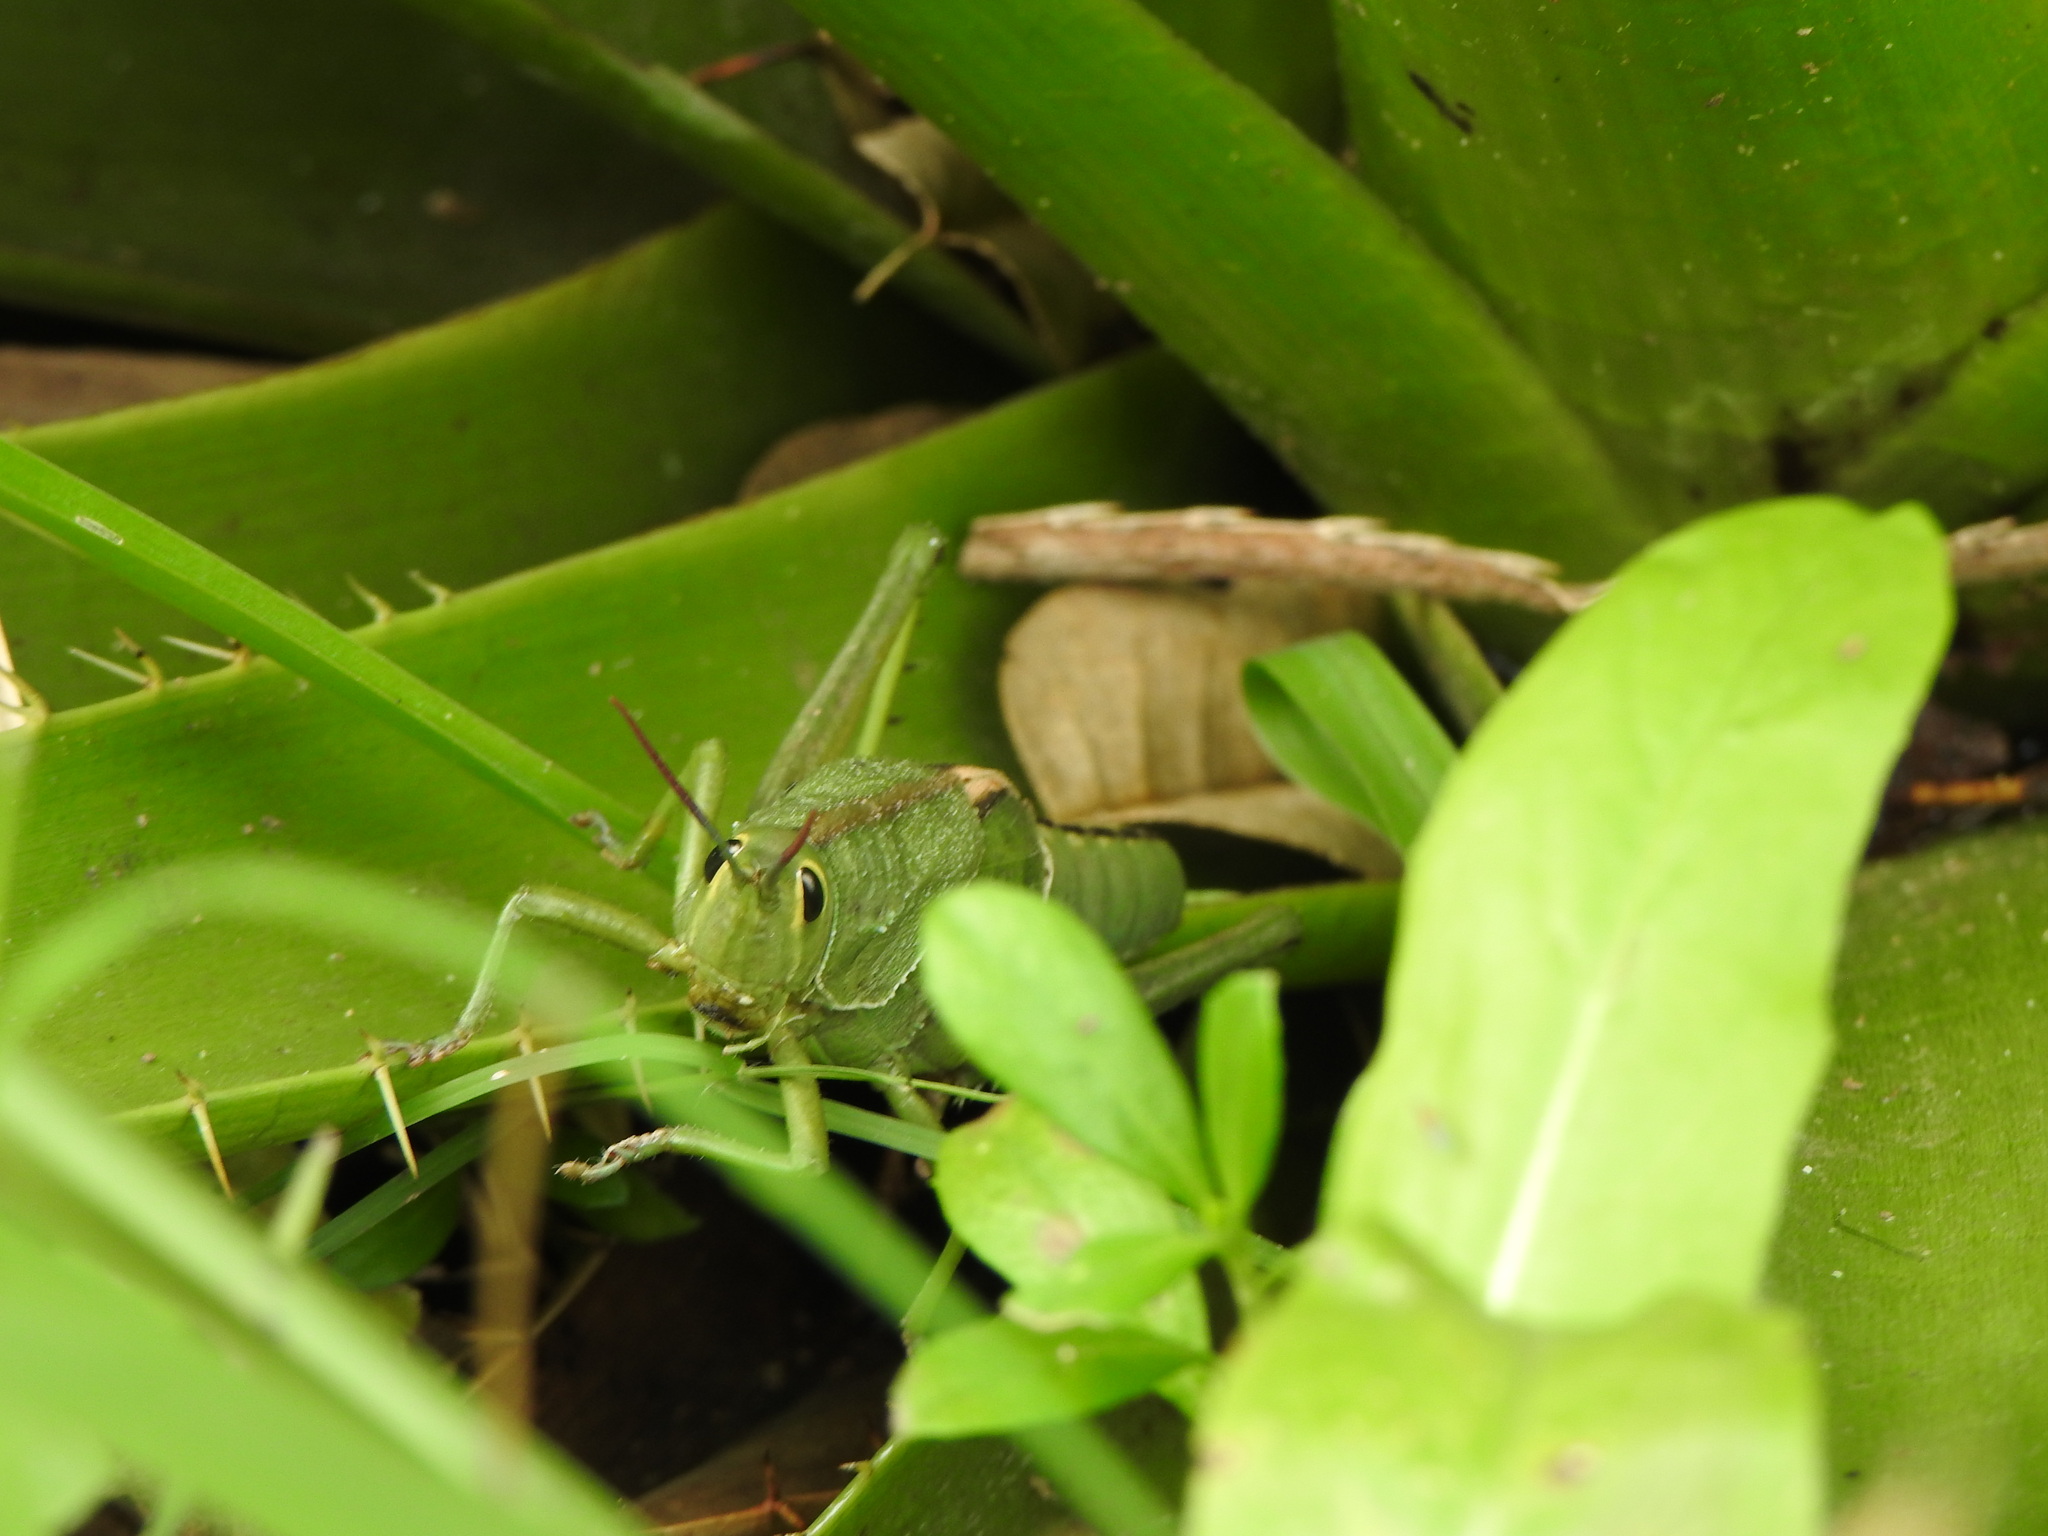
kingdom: Animalia
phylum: Arthropoda
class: Insecta
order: Orthoptera
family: Romaleidae
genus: Staleochlora
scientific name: Staleochlora viridicata
